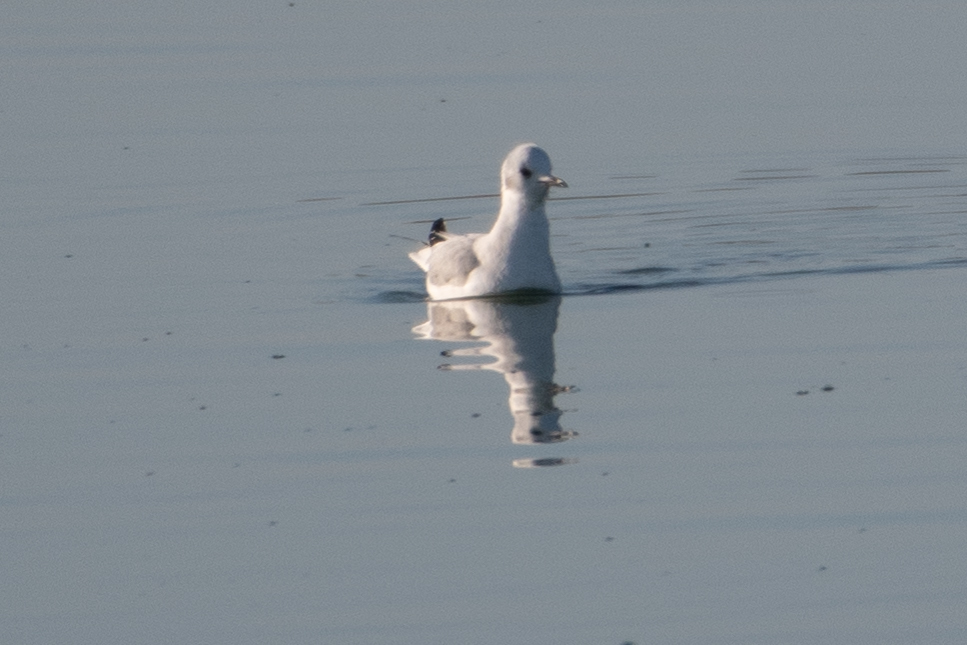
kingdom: Animalia
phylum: Chordata
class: Aves
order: Charadriiformes
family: Laridae
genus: Chroicocephalus
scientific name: Chroicocephalus philadelphia
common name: Bonaparte's gull
